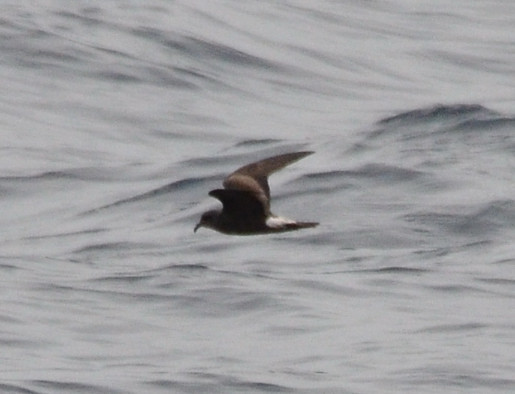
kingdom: Animalia
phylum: Chordata
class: Aves
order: Procellariiformes
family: Hydrobatidae
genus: Oceanodroma
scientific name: Oceanodroma leucorhoa
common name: Leach's storm-petrel
